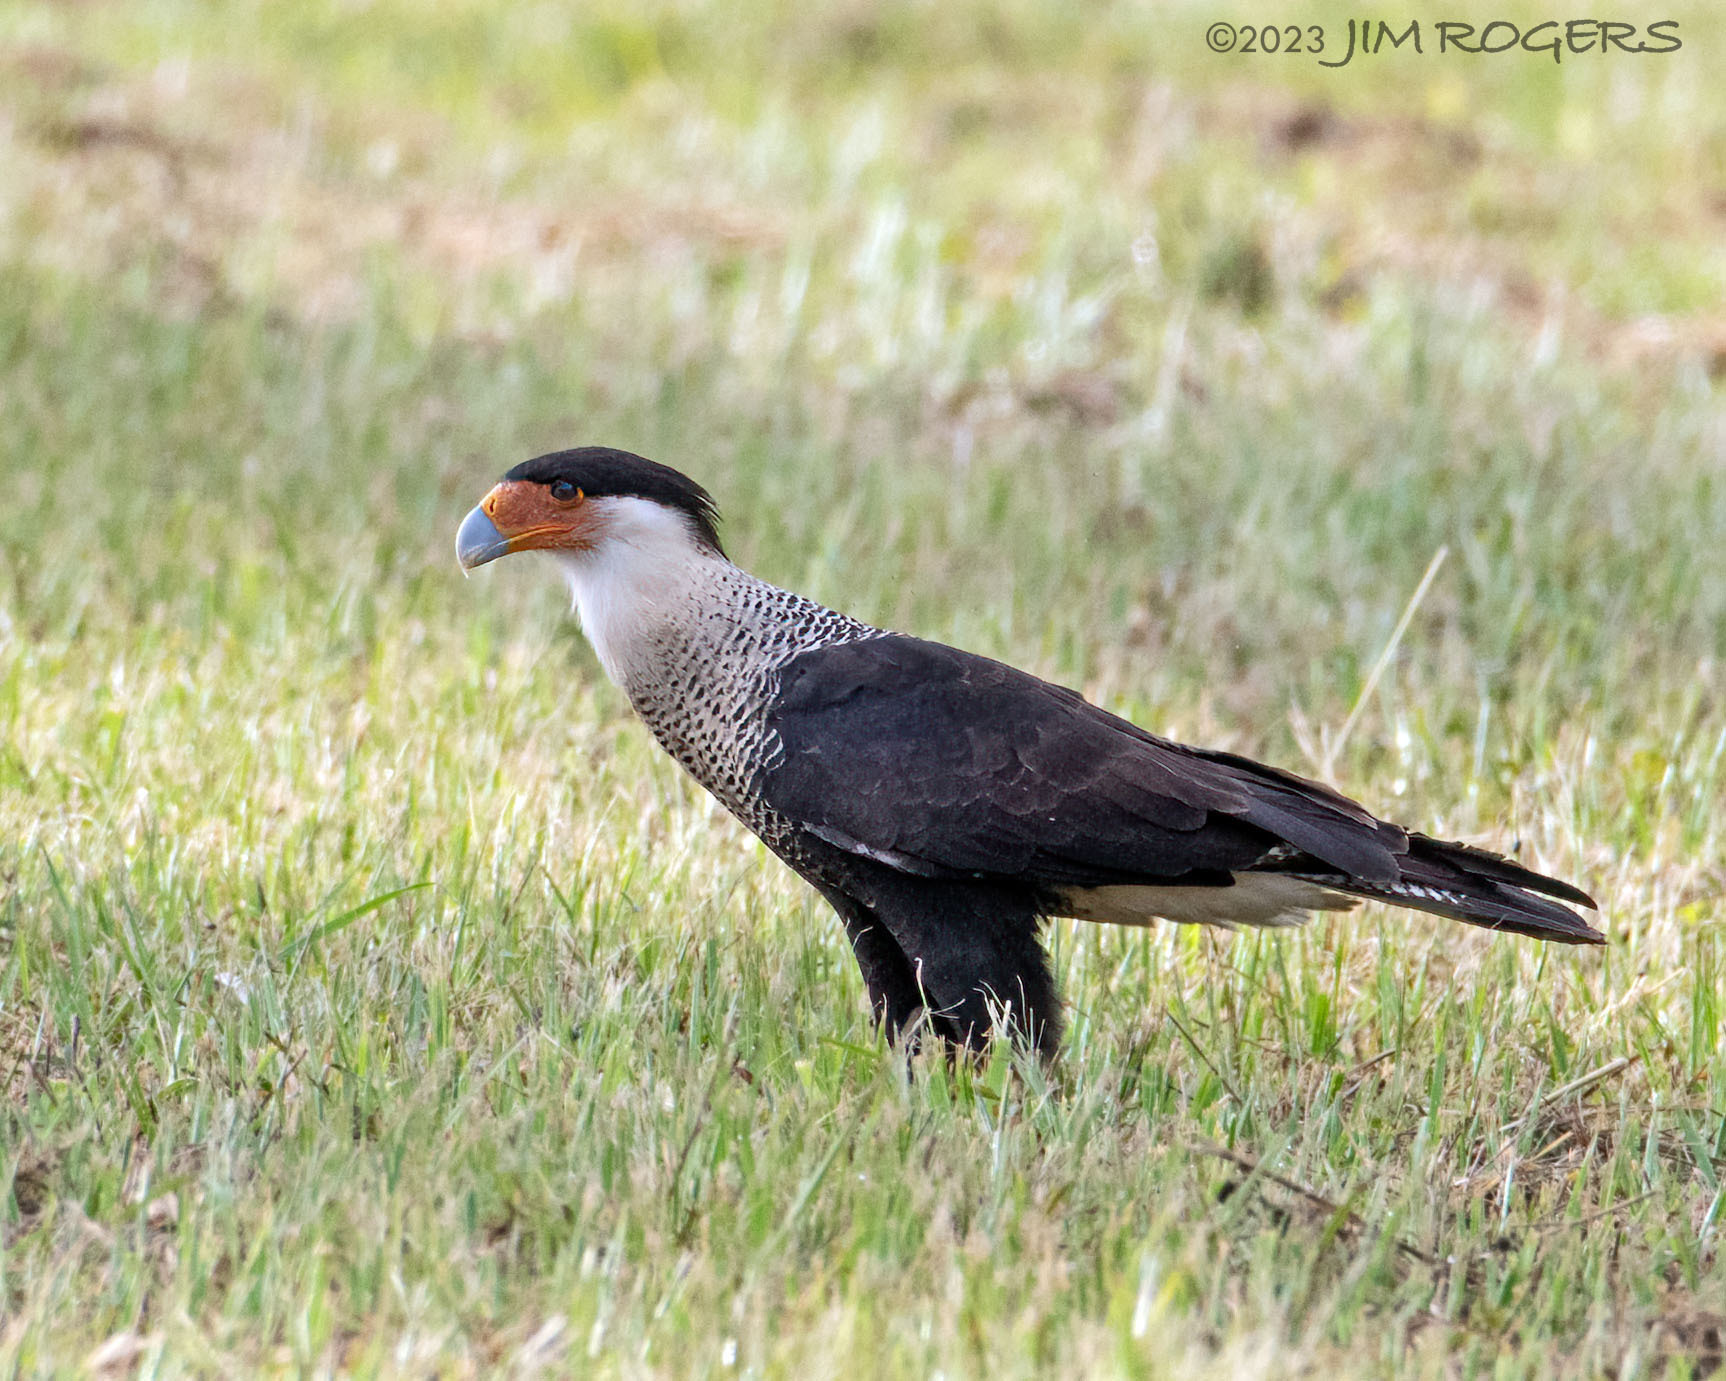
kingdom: Animalia
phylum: Chordata
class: Aves
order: Falconiformes
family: Falconidae
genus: Caracara
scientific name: Caracara plancus
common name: Southern caracara
